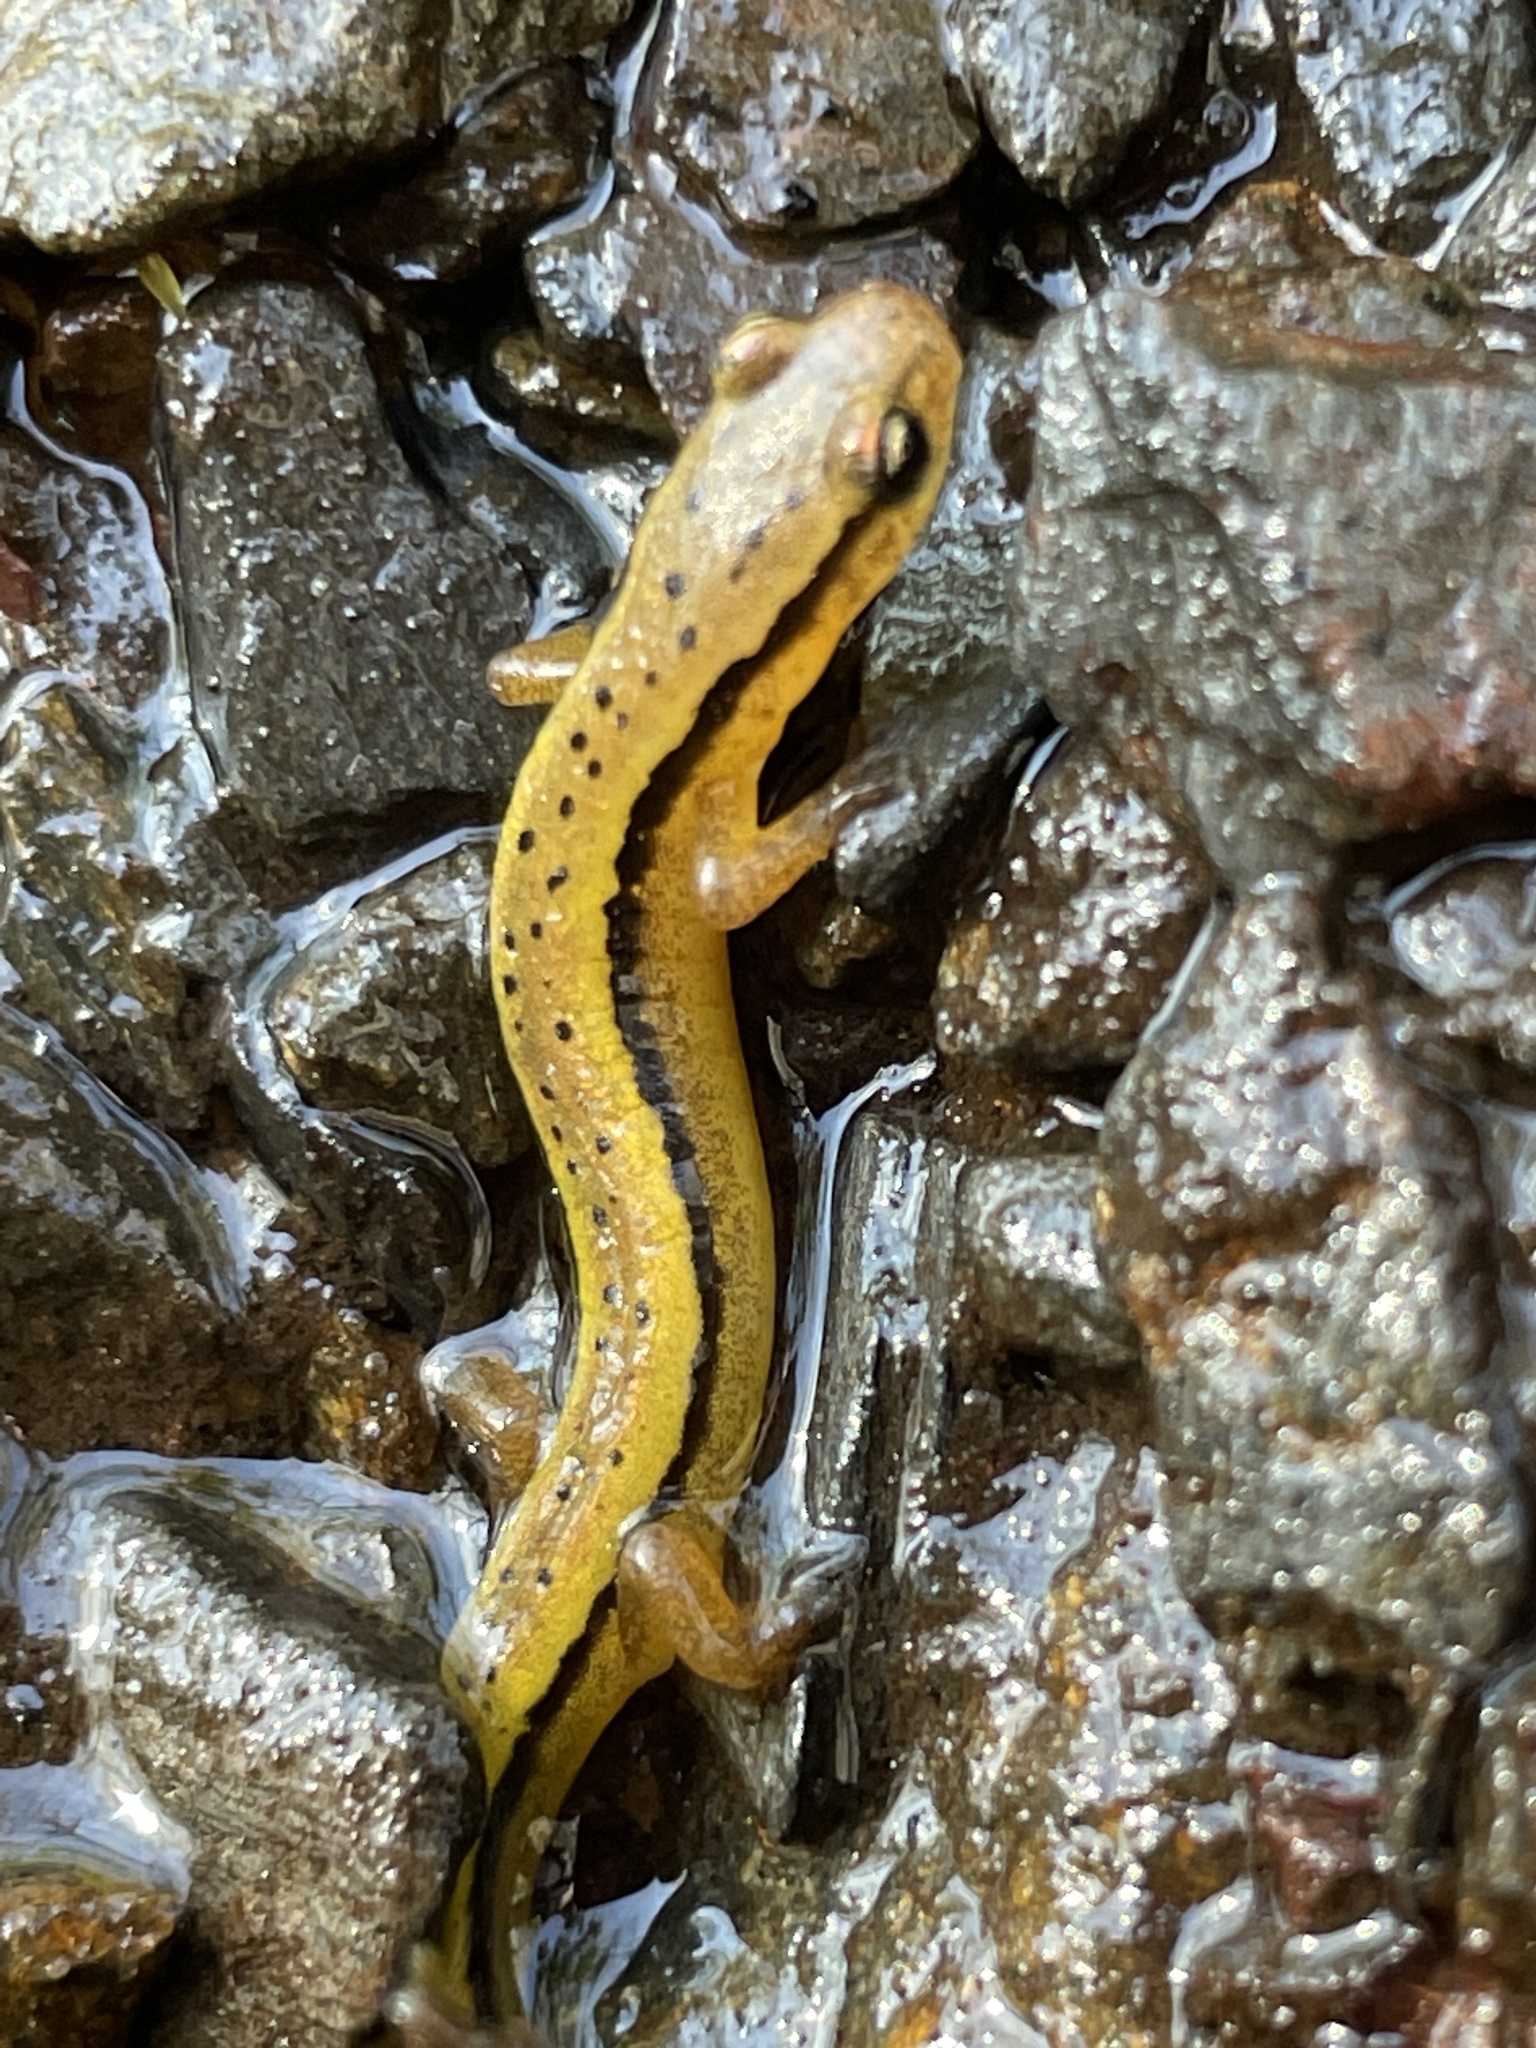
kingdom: Animalia
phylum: Chordata
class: Amphibia
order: Caudata
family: Plethodontidae
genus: Eurycea
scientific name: Eurycea wilderae
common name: Blue ridge two-lined salamander
